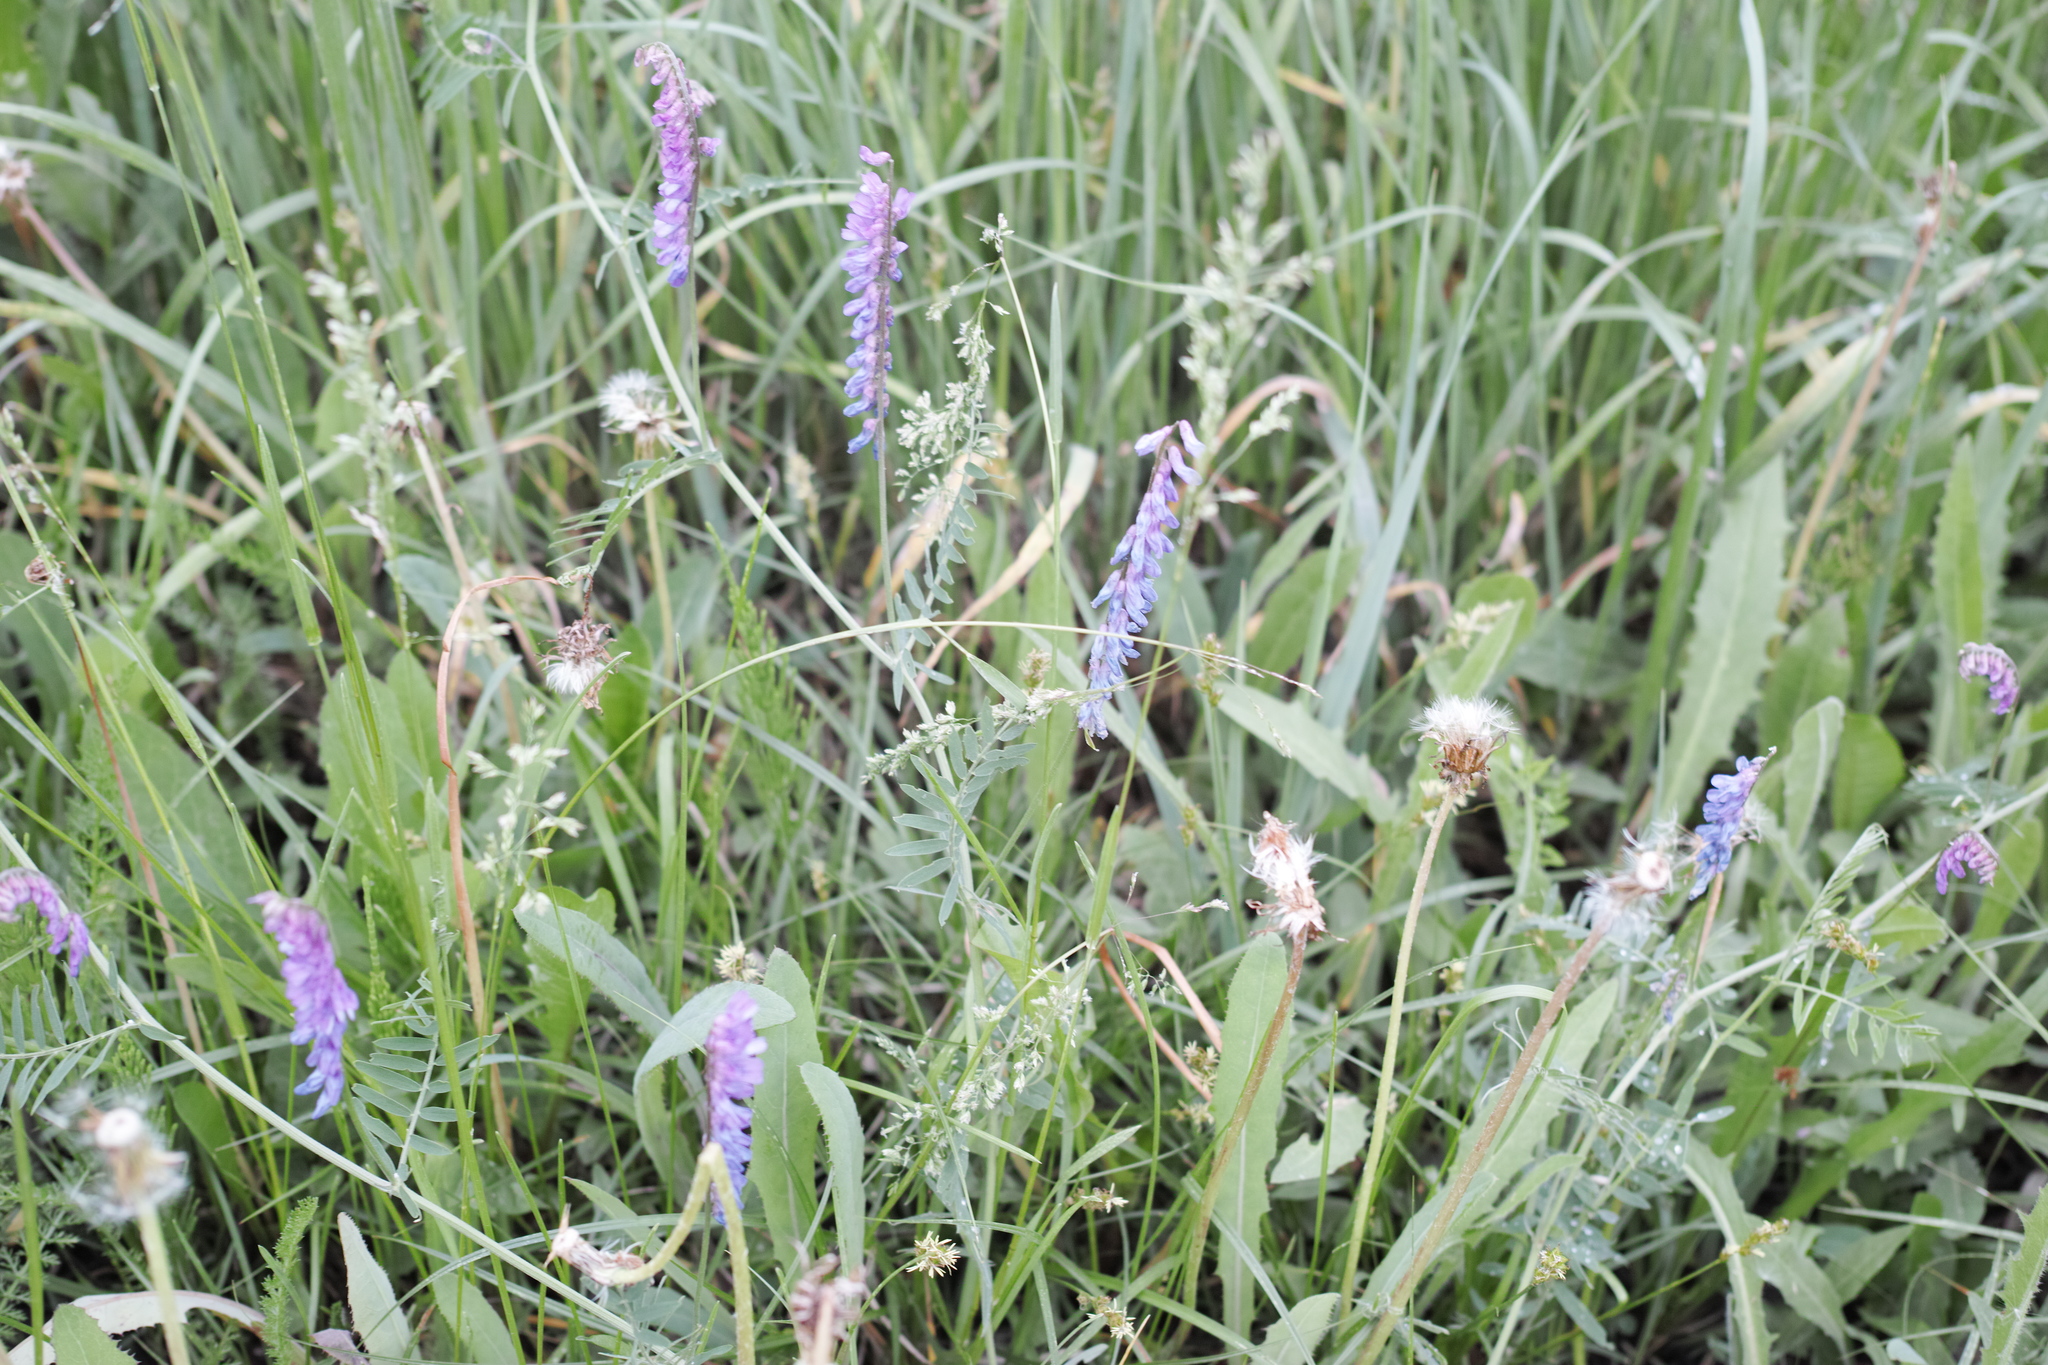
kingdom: Plantae
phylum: Tracheophyta
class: Magnoliopsida
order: Fabales
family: Fabaceae
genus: Vicia
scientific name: Vicia cracca
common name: Bird vetch
